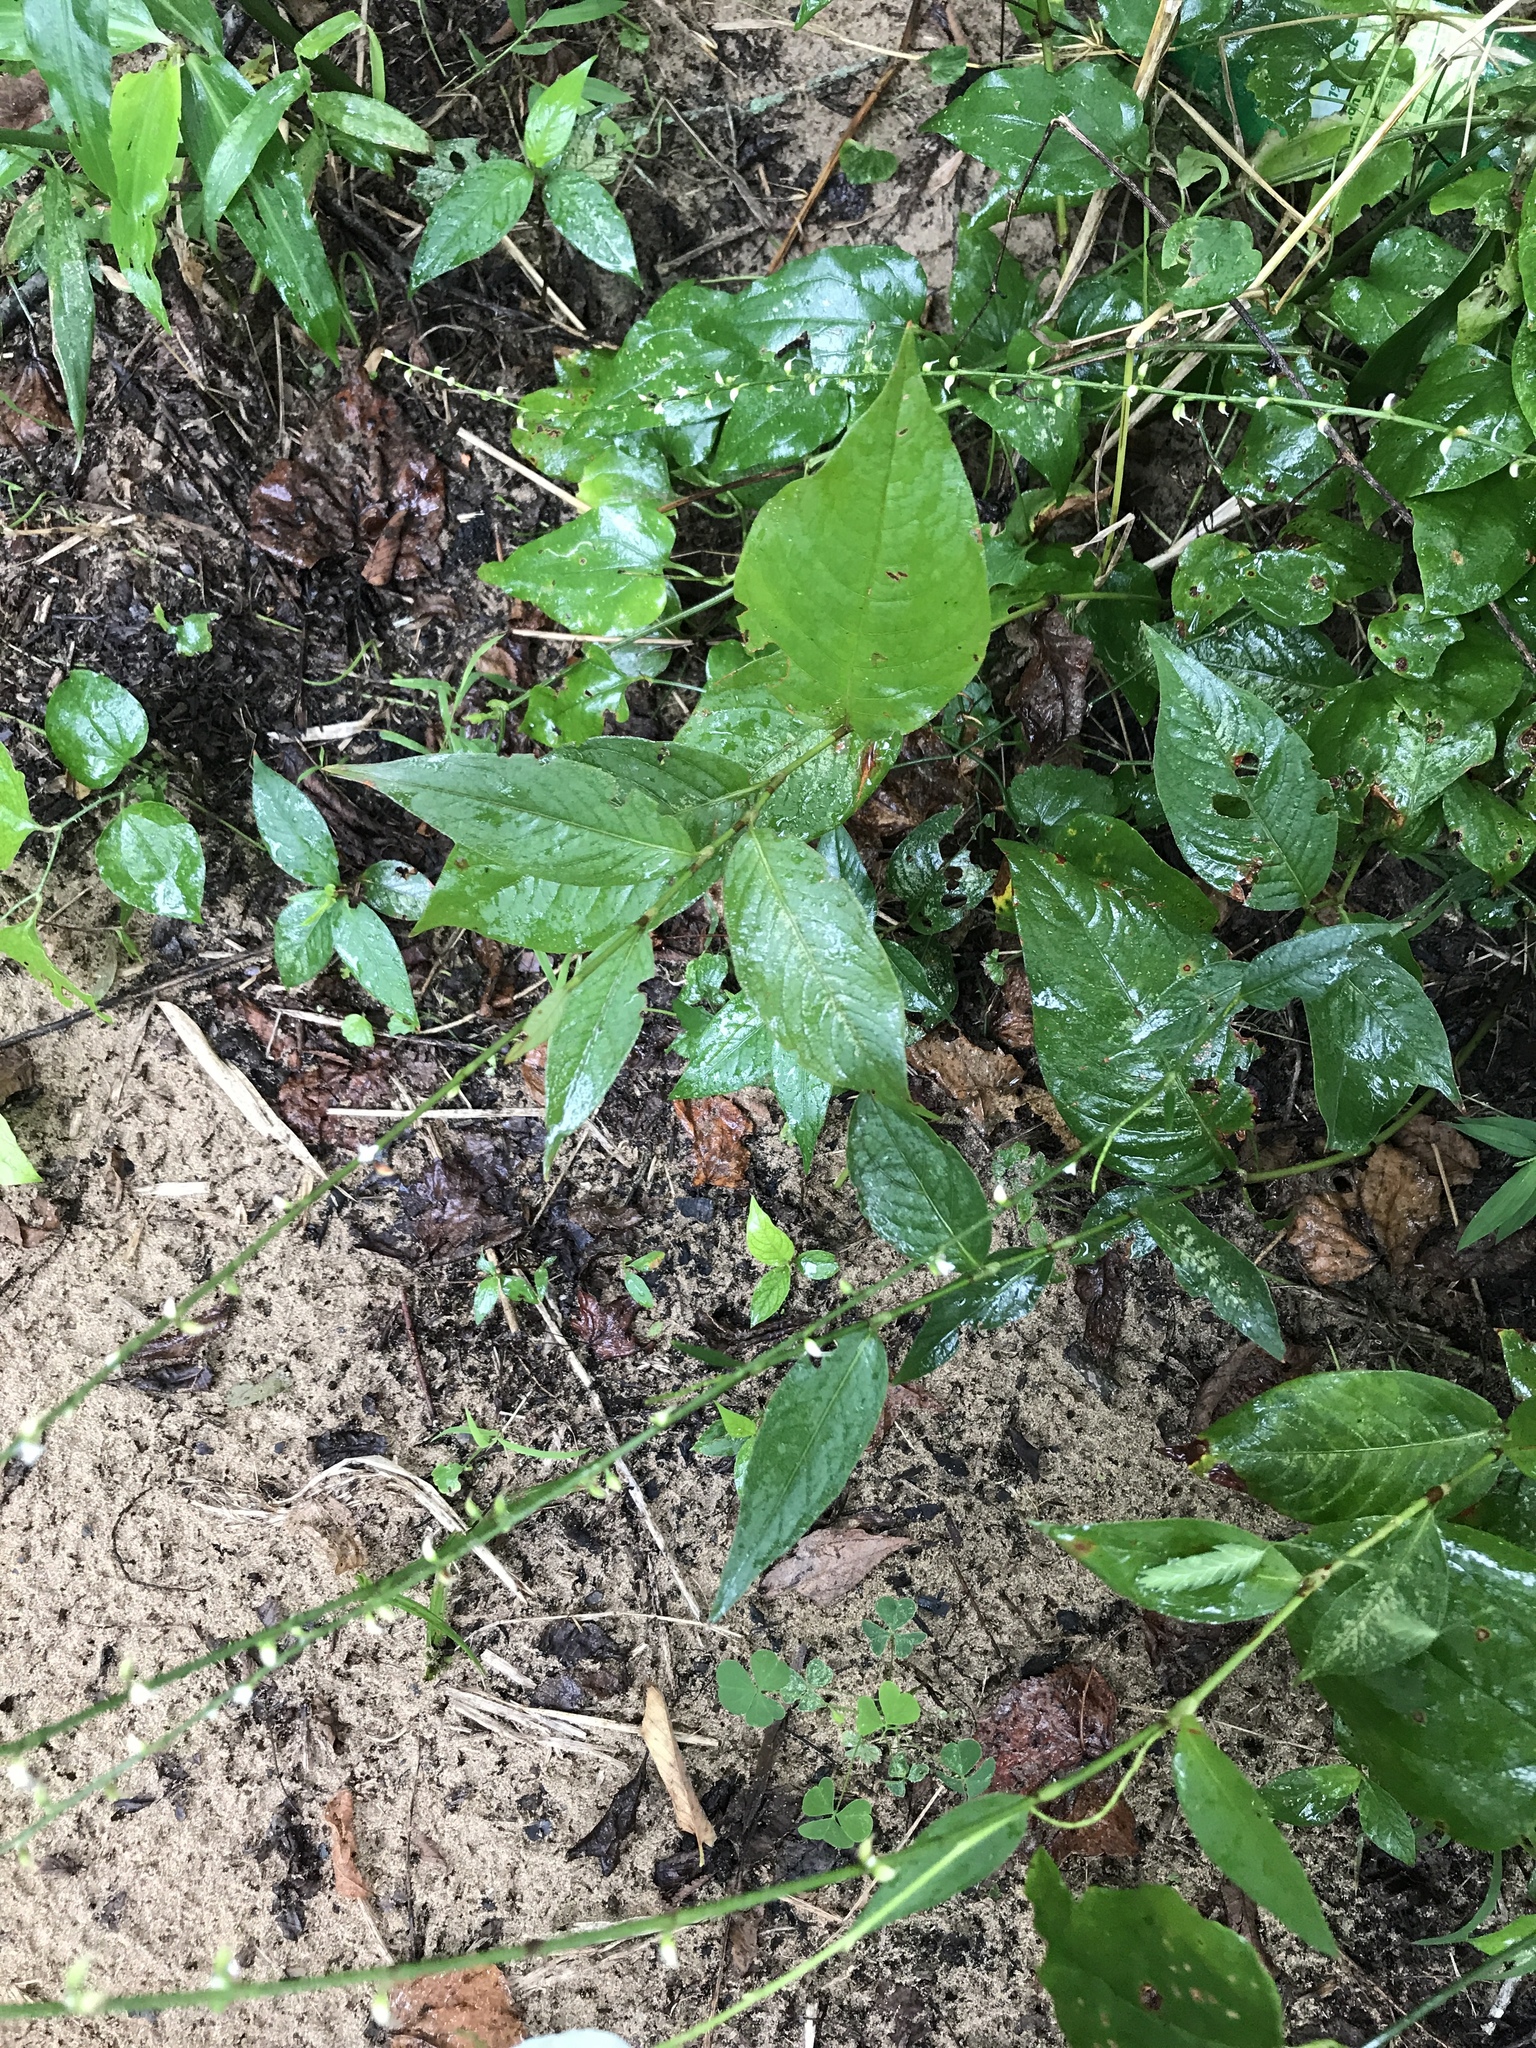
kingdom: Plantae
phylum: Tracheophyta
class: Magnoliopsida
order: Caryophyllales
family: Polygonaceae
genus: Persicaria
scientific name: Persicaria virginiana
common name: Jumpseed
